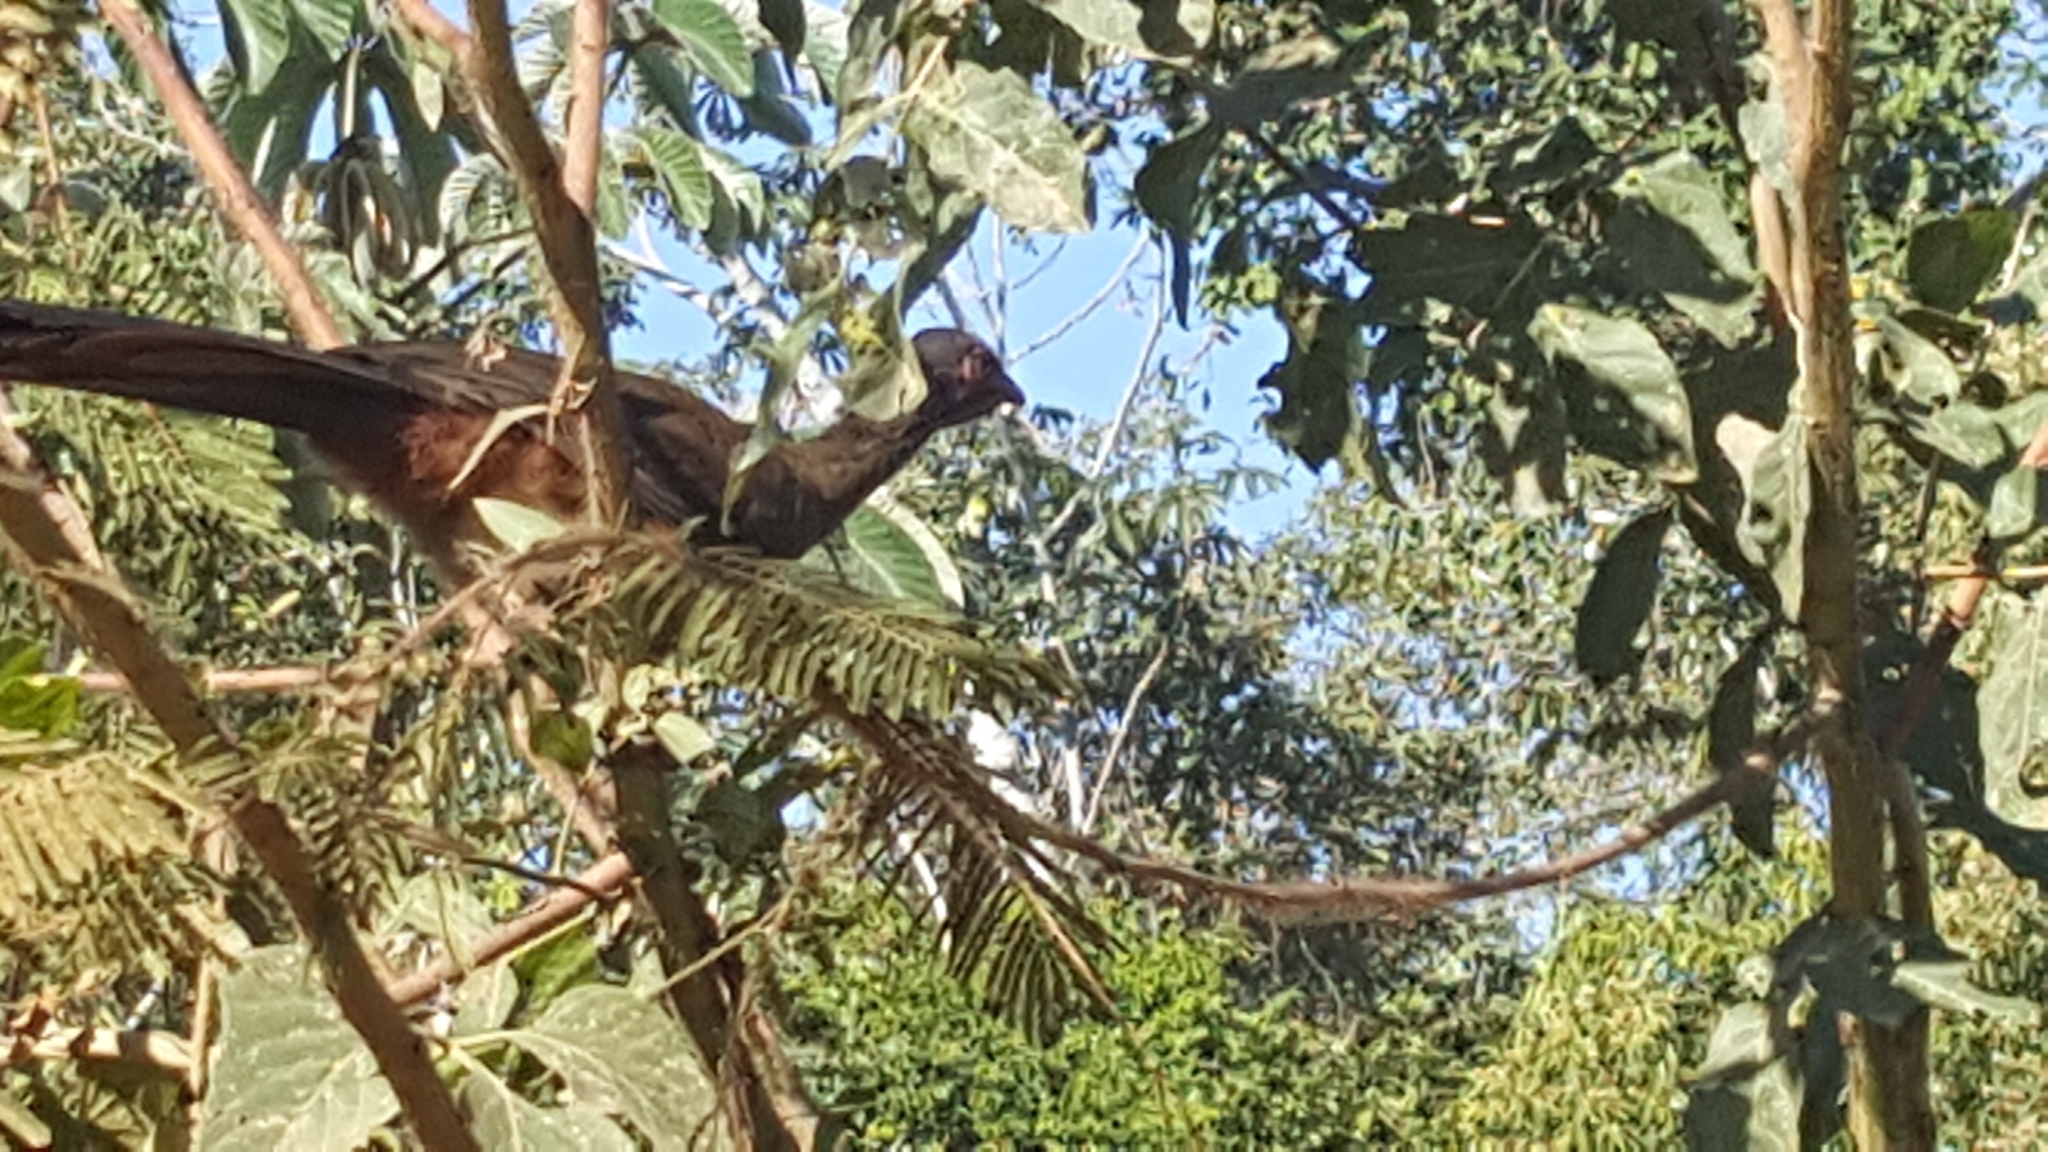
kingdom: Animalia
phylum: Chordata
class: Aves
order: Galliformes
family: Cracidae
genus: Ortalis
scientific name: Ortalis canicollis
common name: Chaco chachalaca
